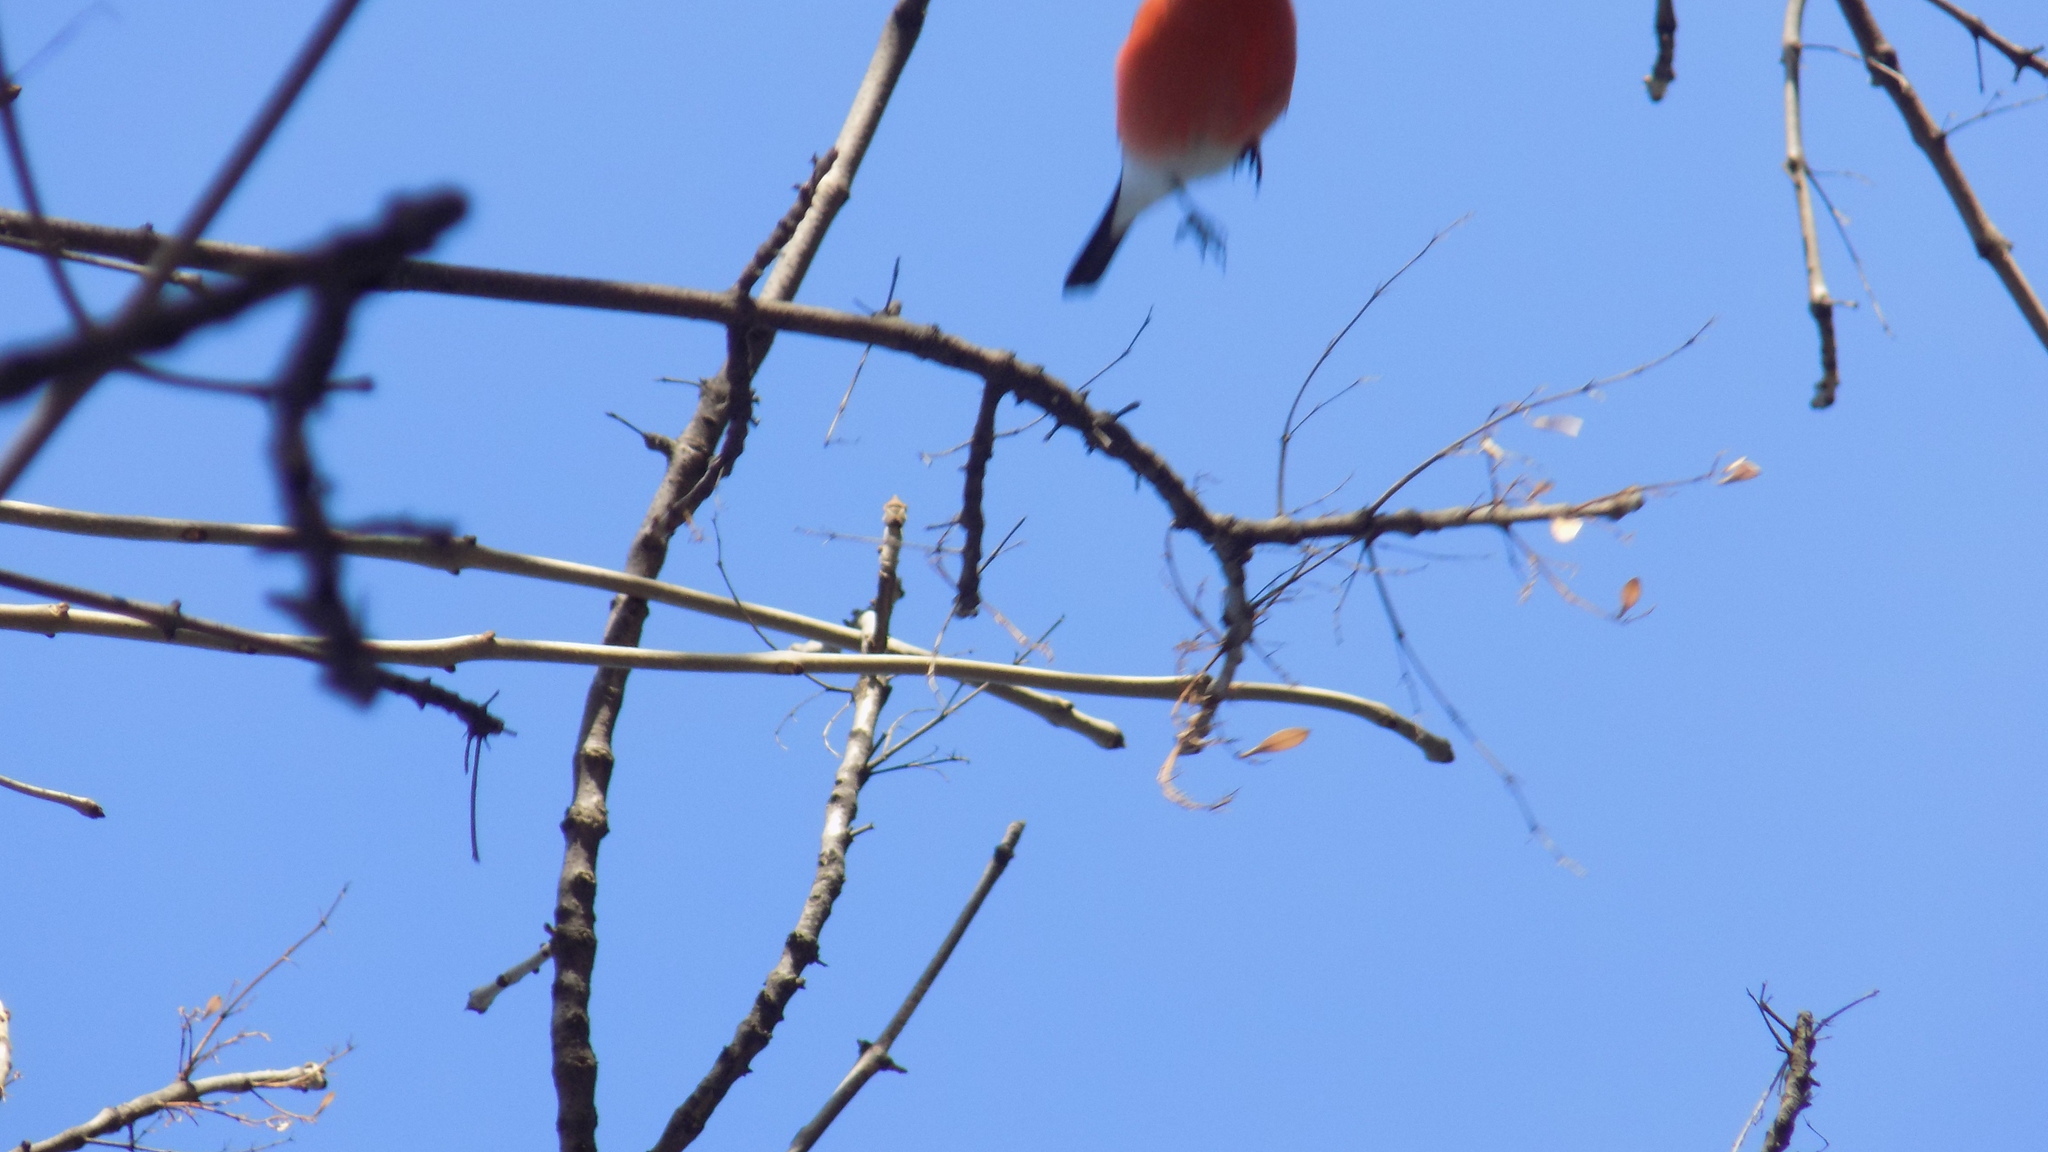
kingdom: Animalia
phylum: Chordata
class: Aves
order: Passeriformes
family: Fringillidae
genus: Pyrrhula
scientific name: Pyrrhula pyrrhula
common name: Eurasian bullfinch
